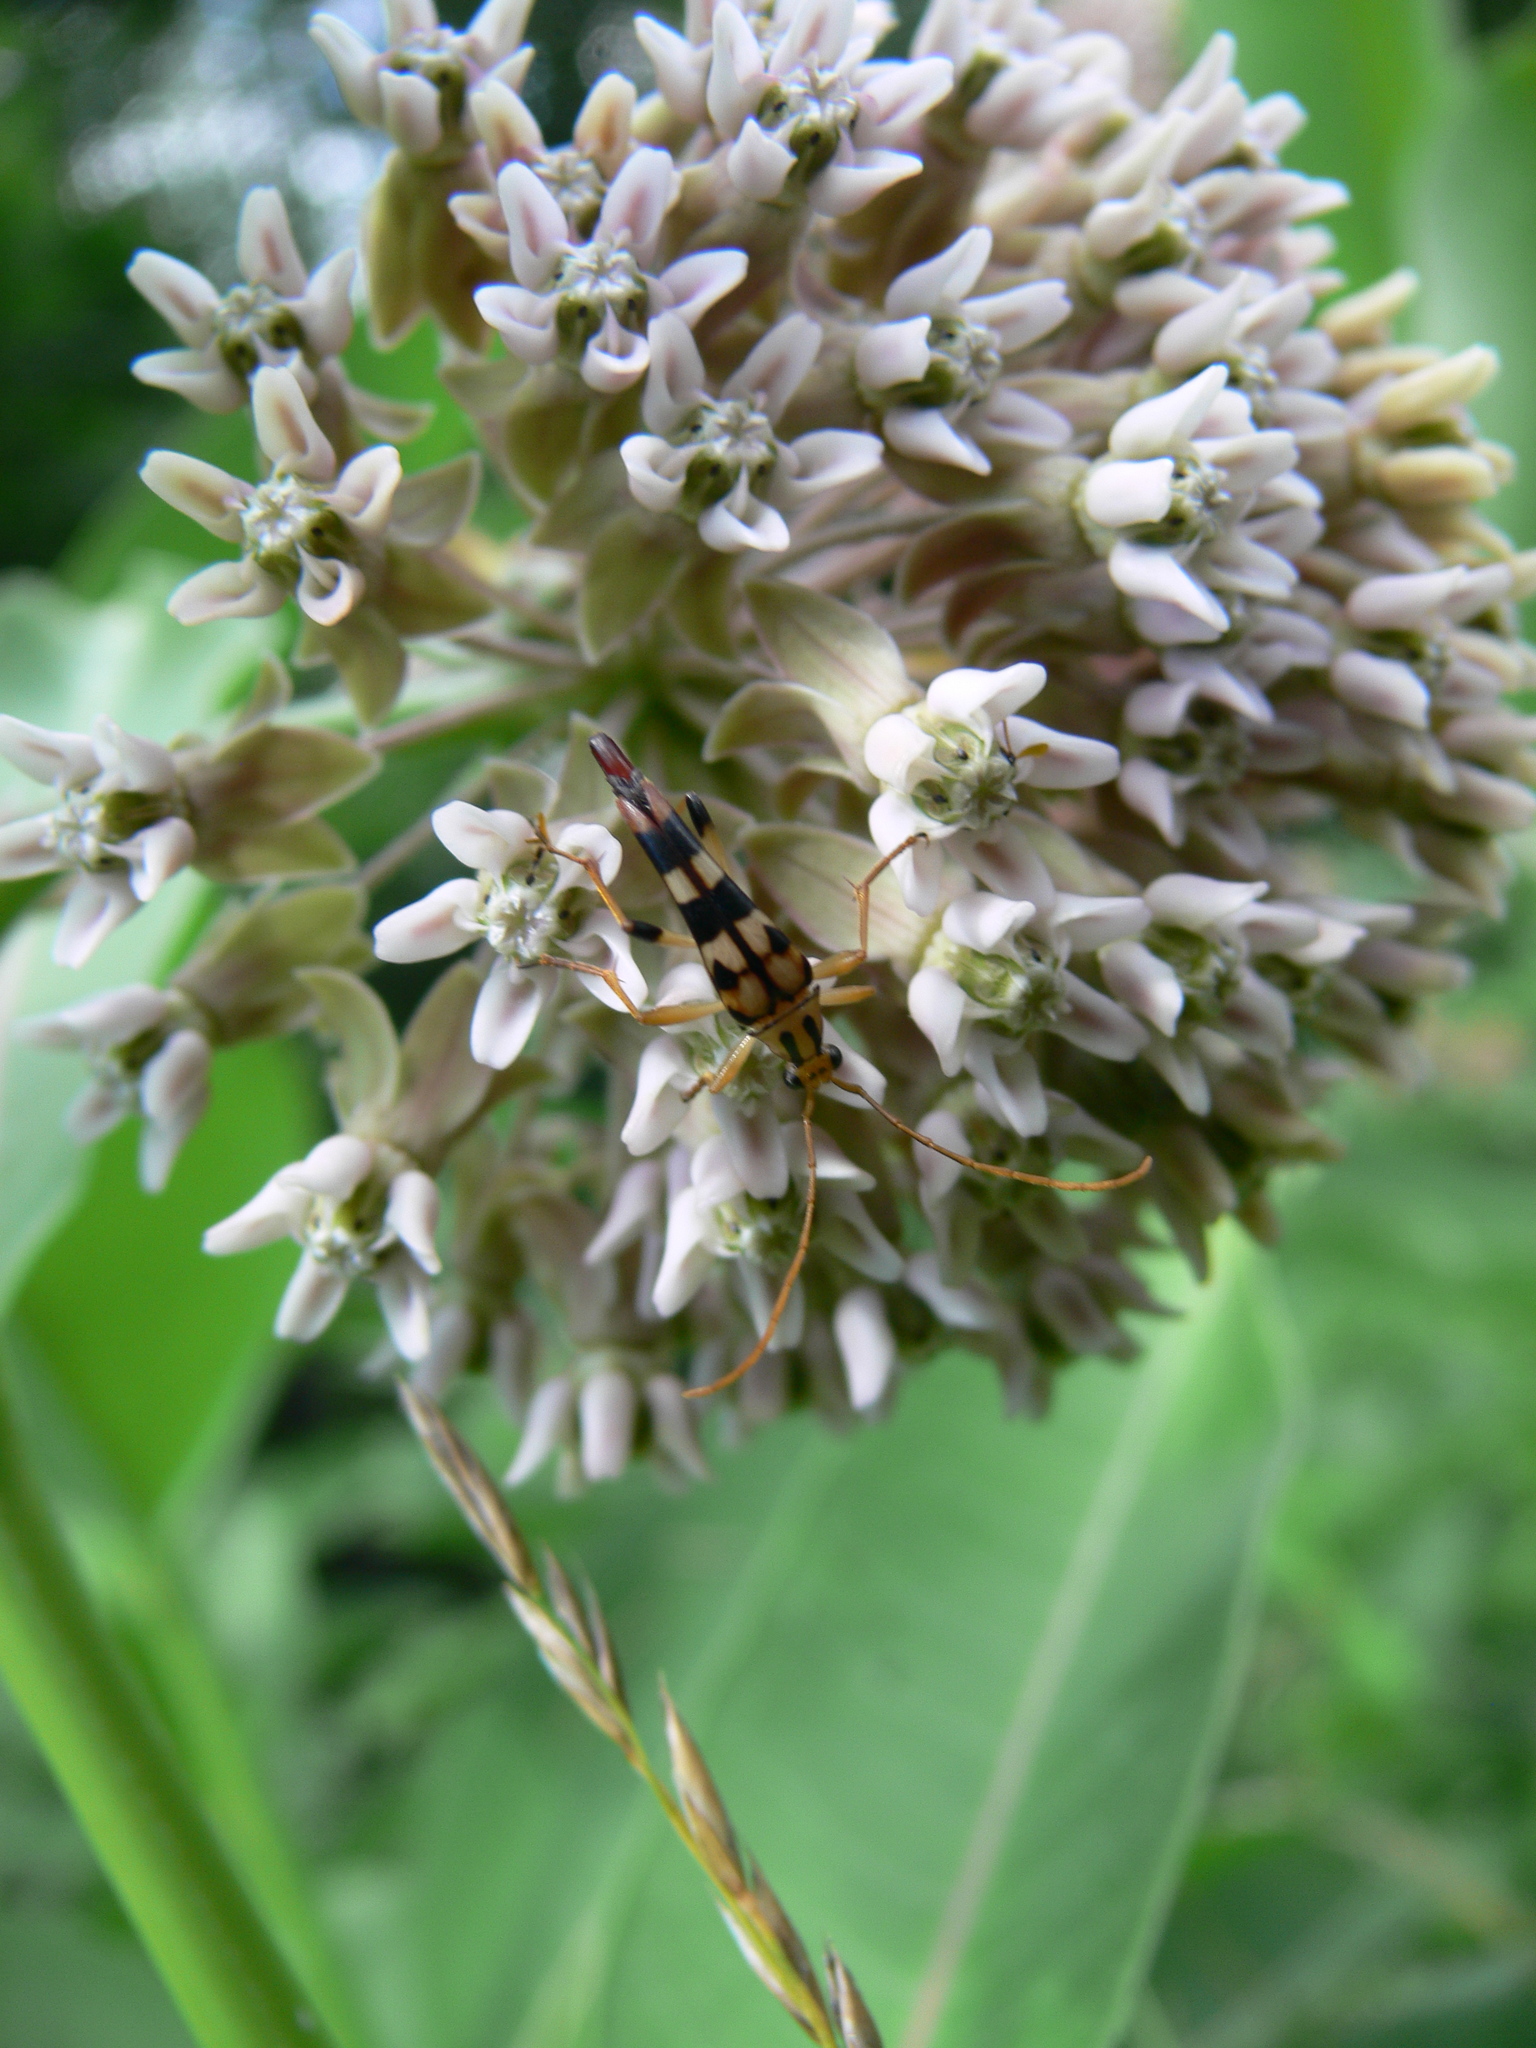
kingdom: Animalia
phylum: Arthropoda
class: Insecta
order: Coleoptera
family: Cerambycidae
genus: Strangalia
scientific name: Strangalia luteicornis
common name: Yellow-horned flower longhorn beetle
